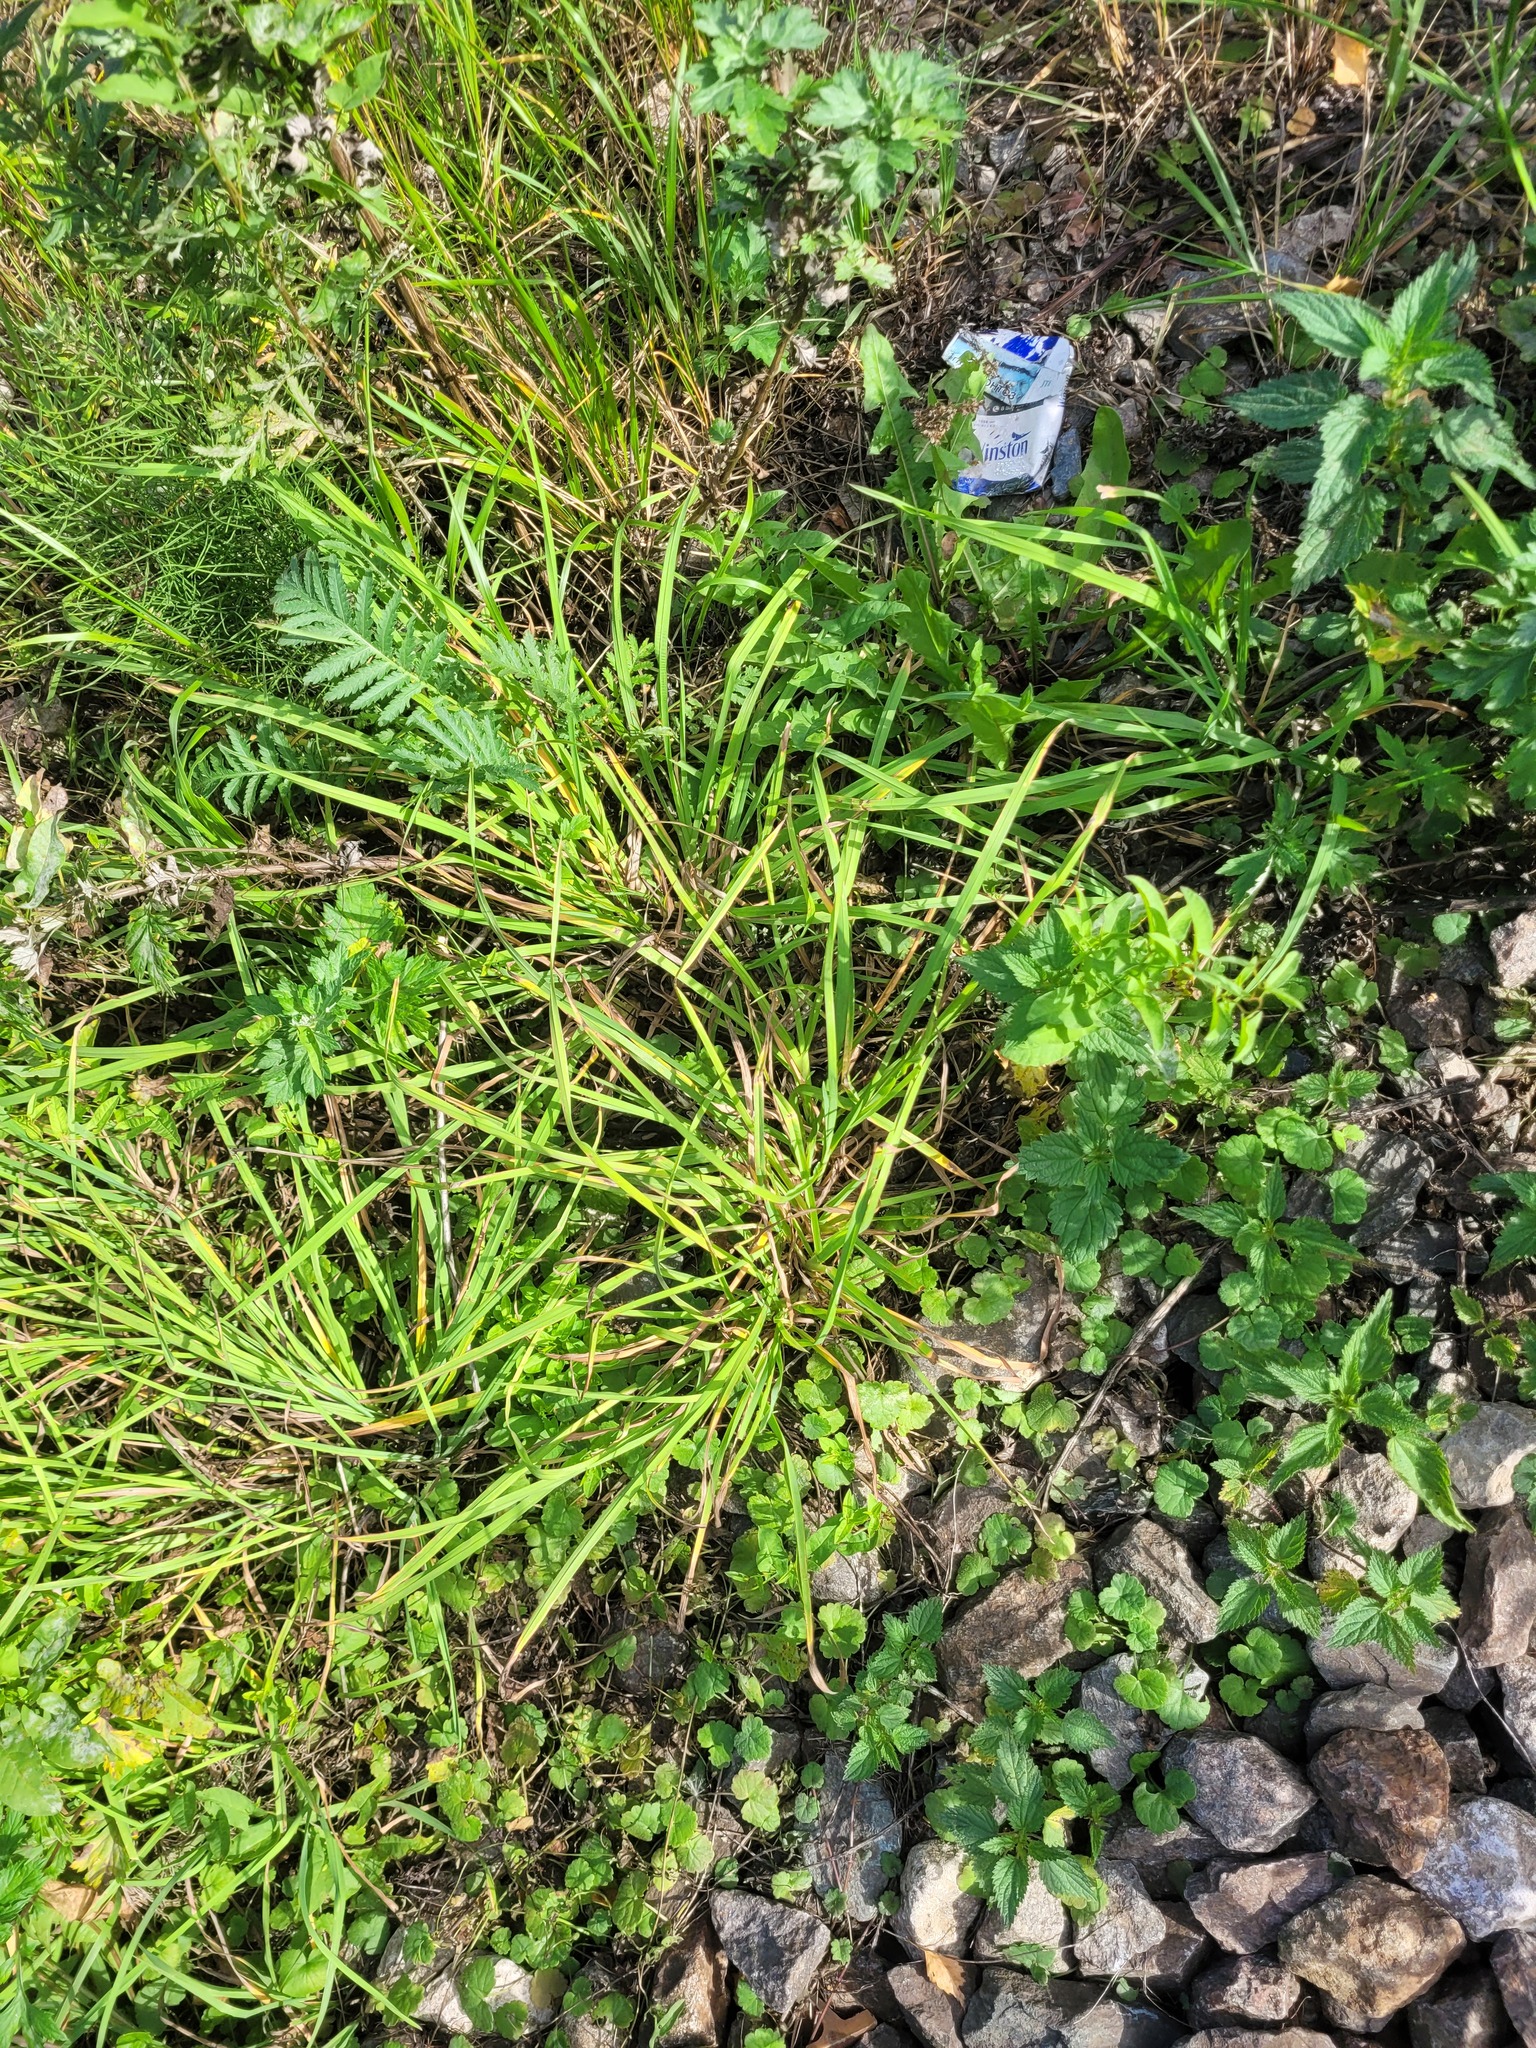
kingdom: Plantae
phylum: Tracheophyta
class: Liliopsida
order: Poales
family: Poaceae
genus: Dactylis
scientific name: Dactylis glomerata
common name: Orchardgrass
